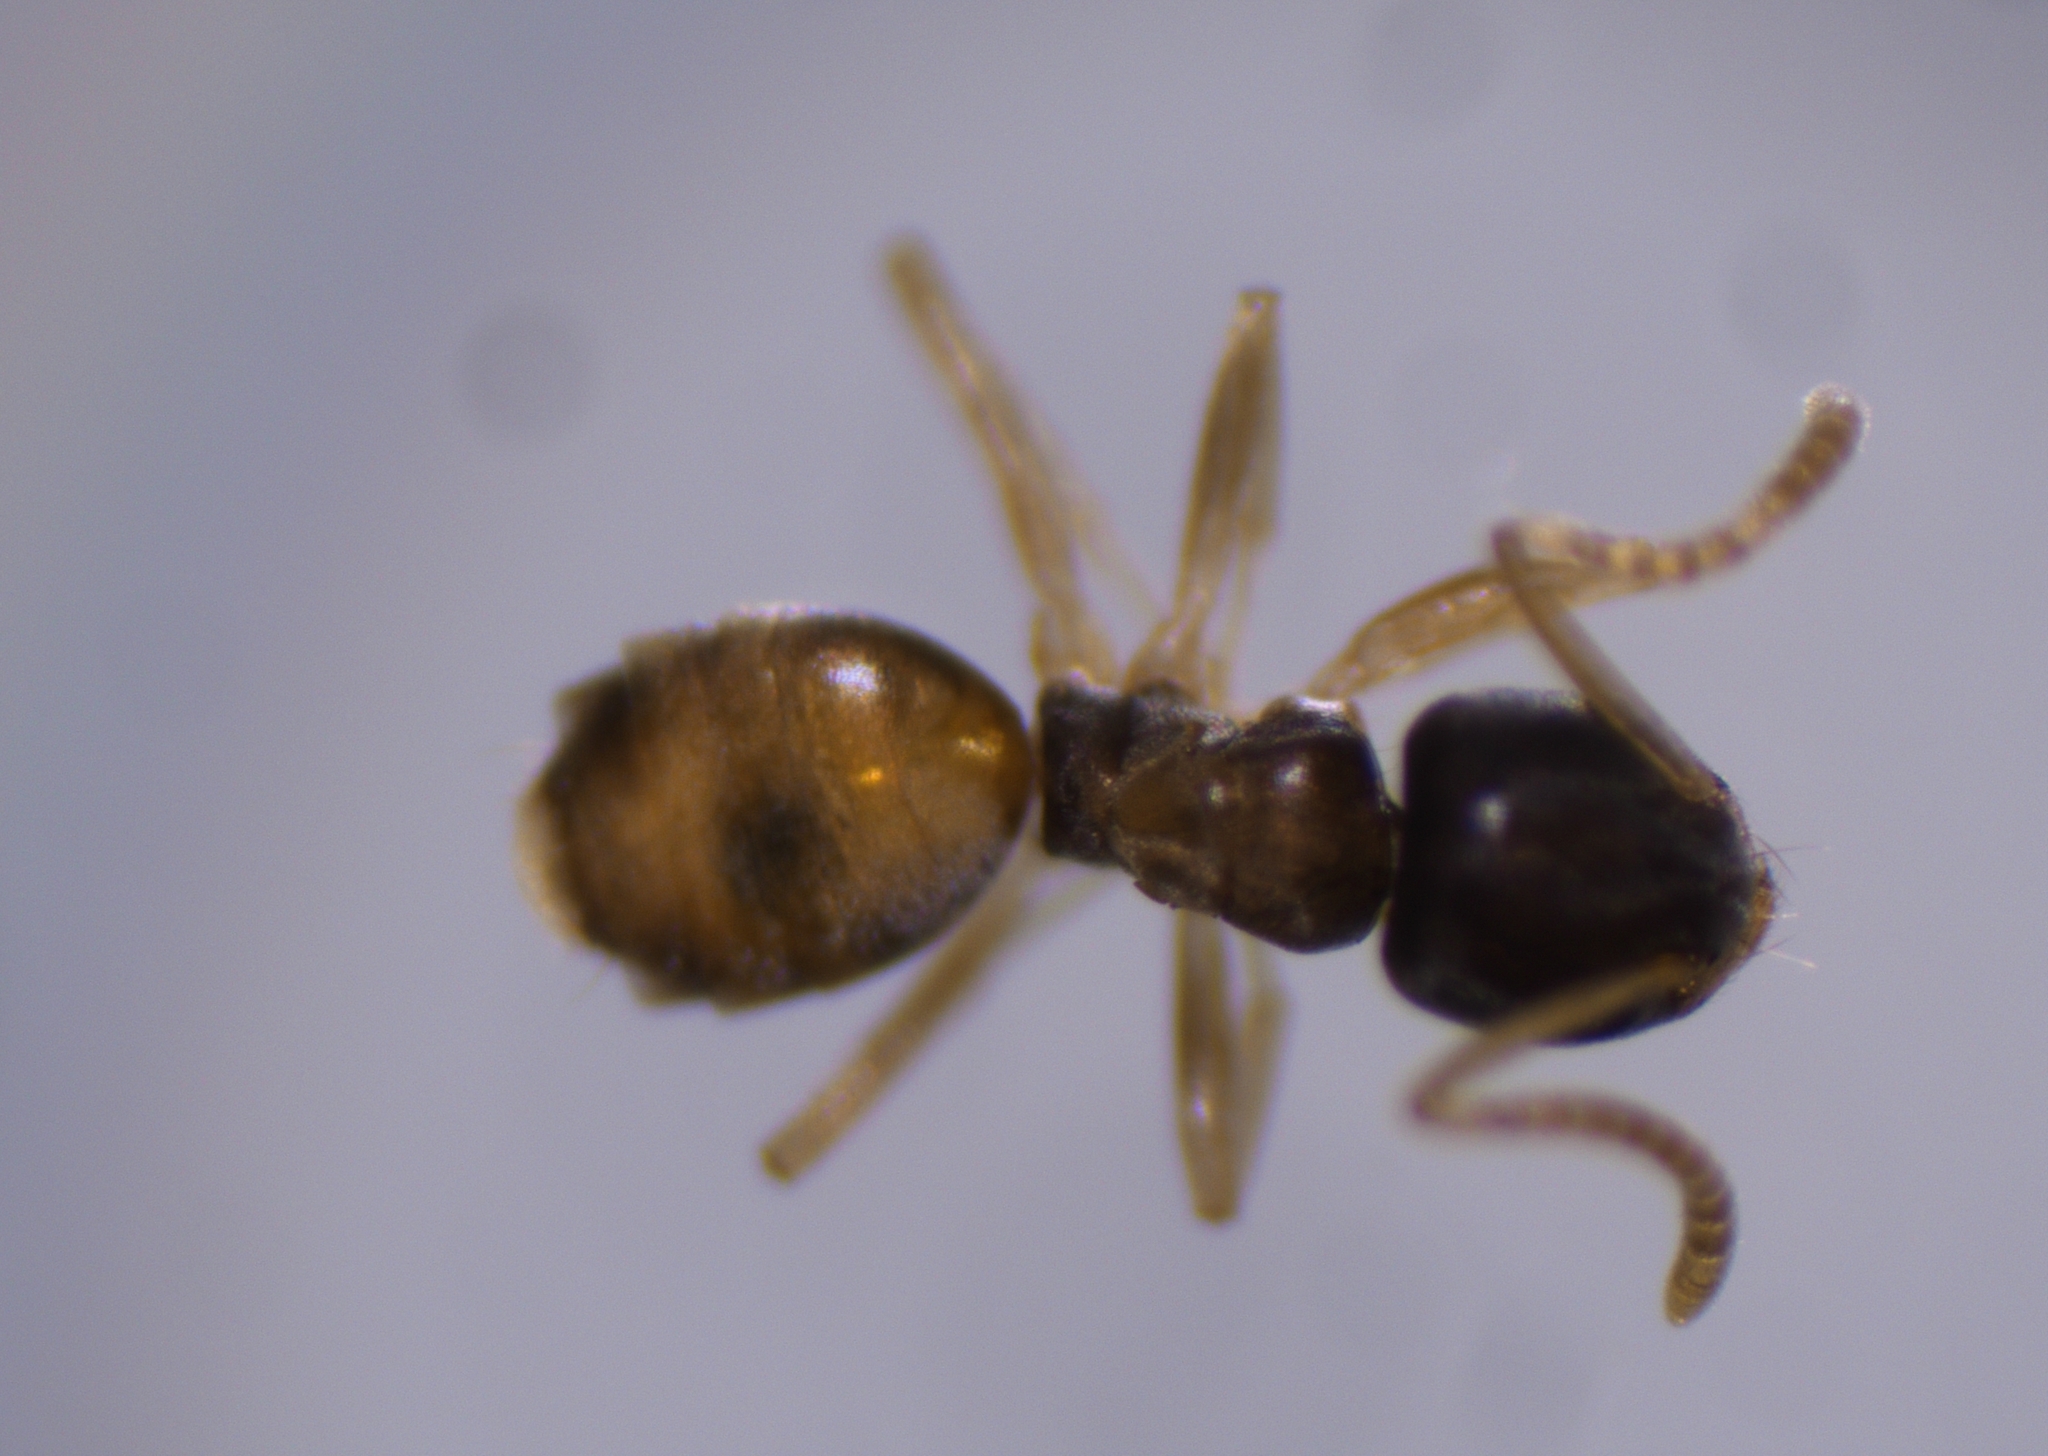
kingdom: Animalia
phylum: Arthropoda
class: Insecta
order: Hymenoptera
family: Formicidae
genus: Tapinoma
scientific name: Tapinoma melanocephalum
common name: Ghost ant
